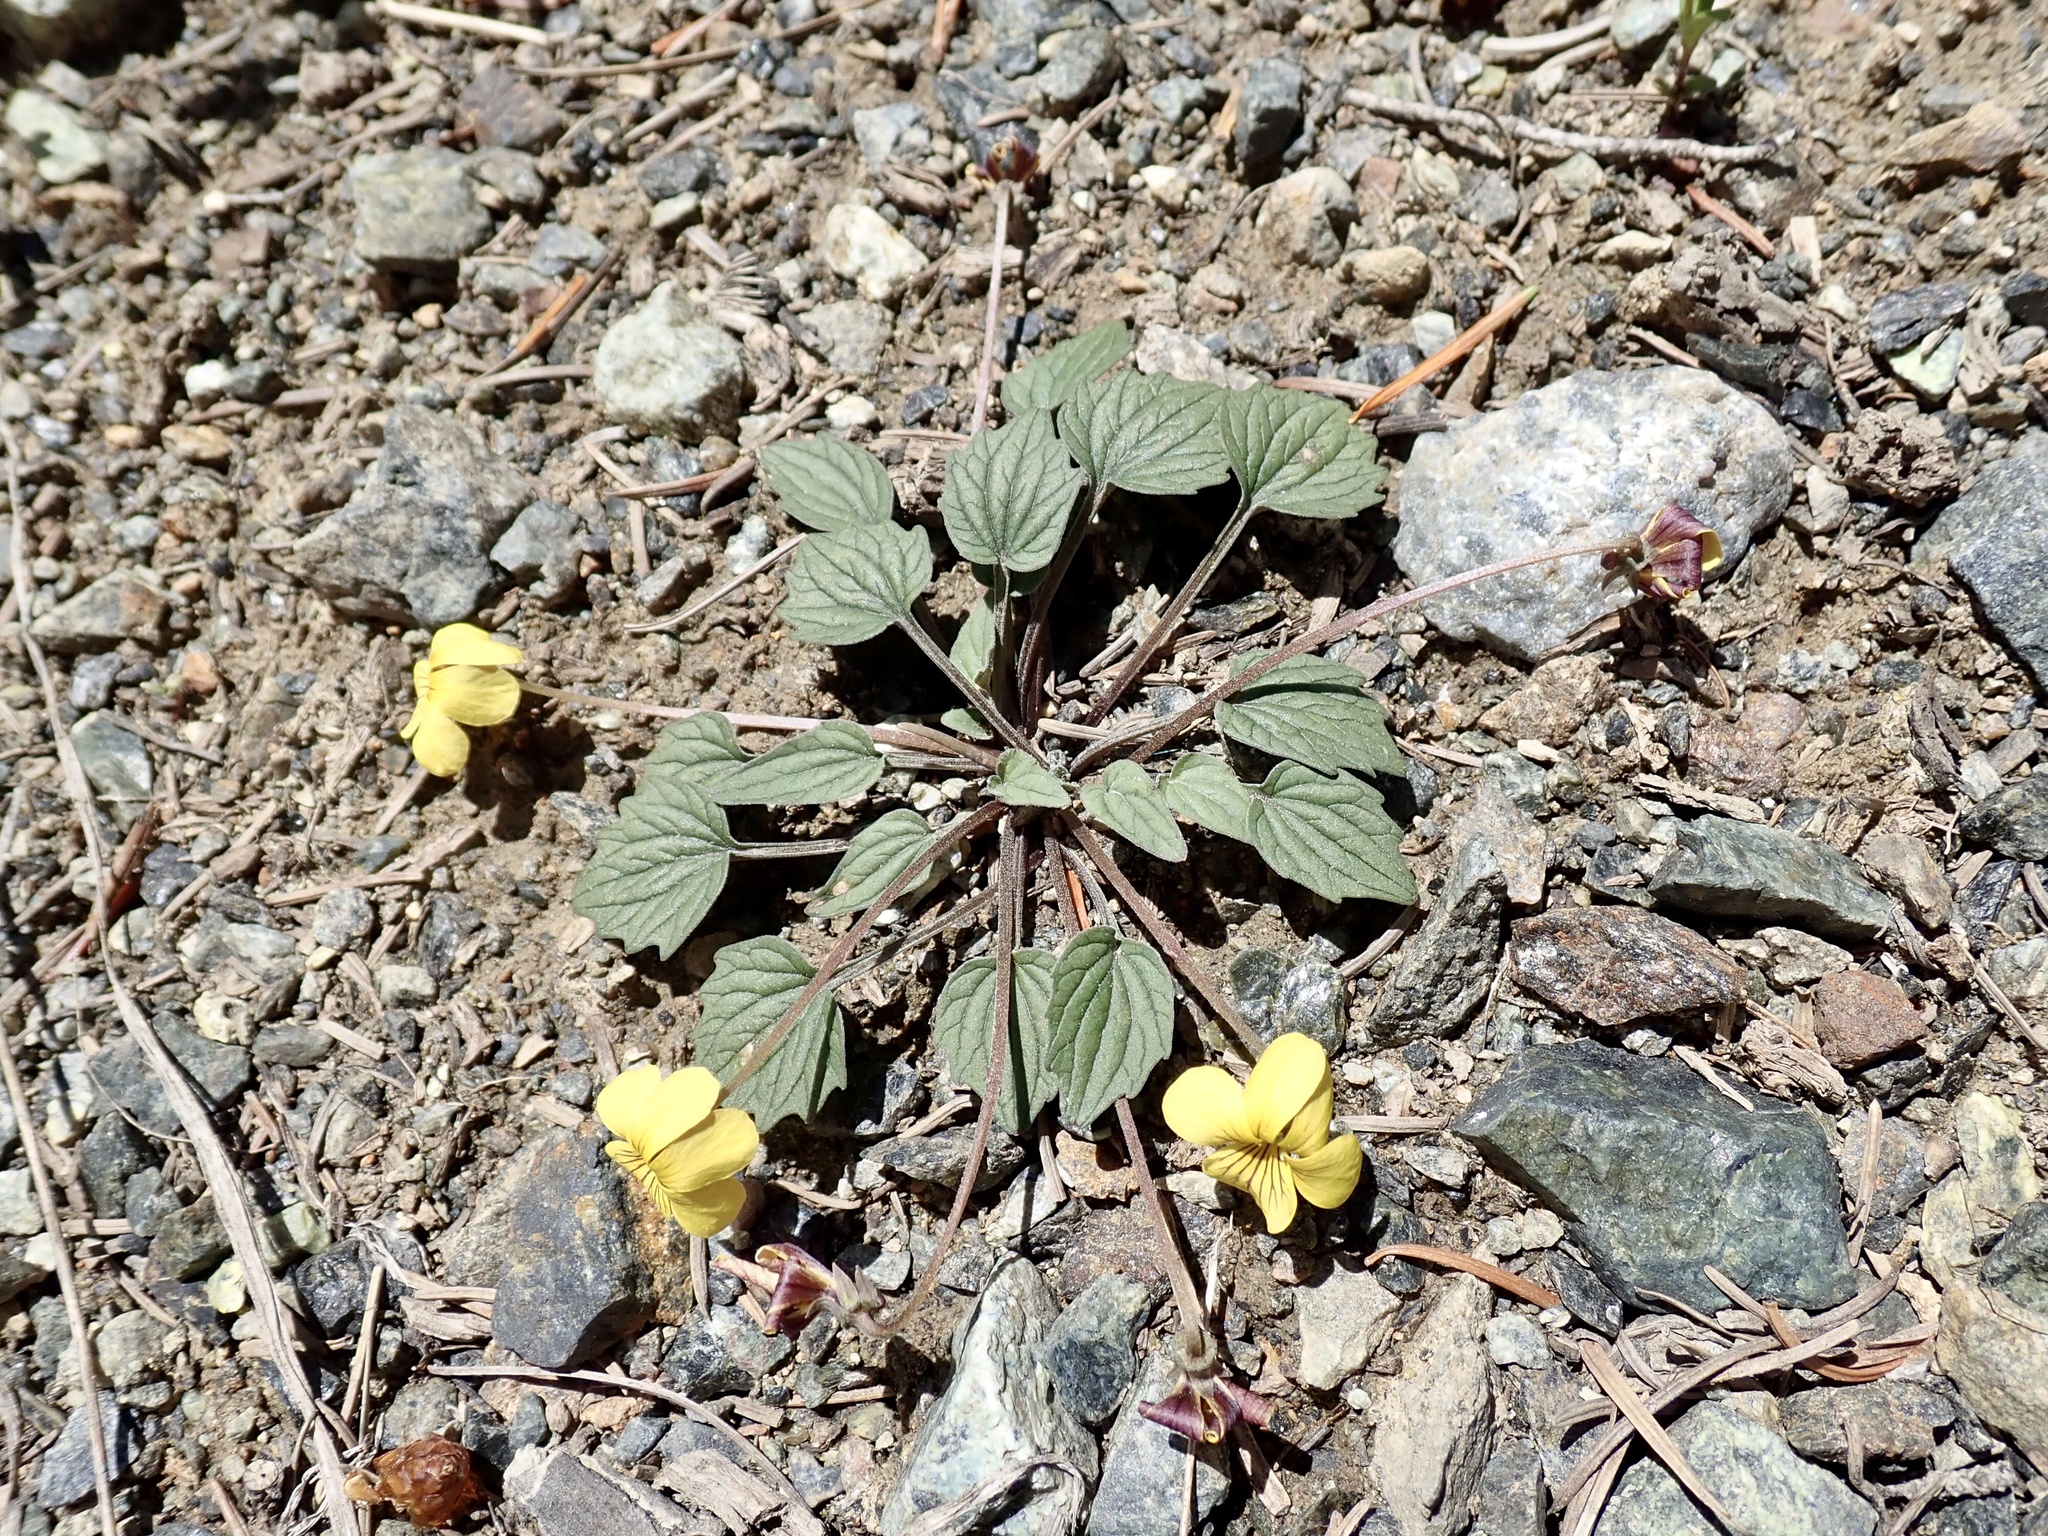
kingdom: Plantae
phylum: Tracheophyta
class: Magnoliopsida
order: Malpighiales
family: Violaceae
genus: Viola
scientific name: Viola purpurea
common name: Pine violet
